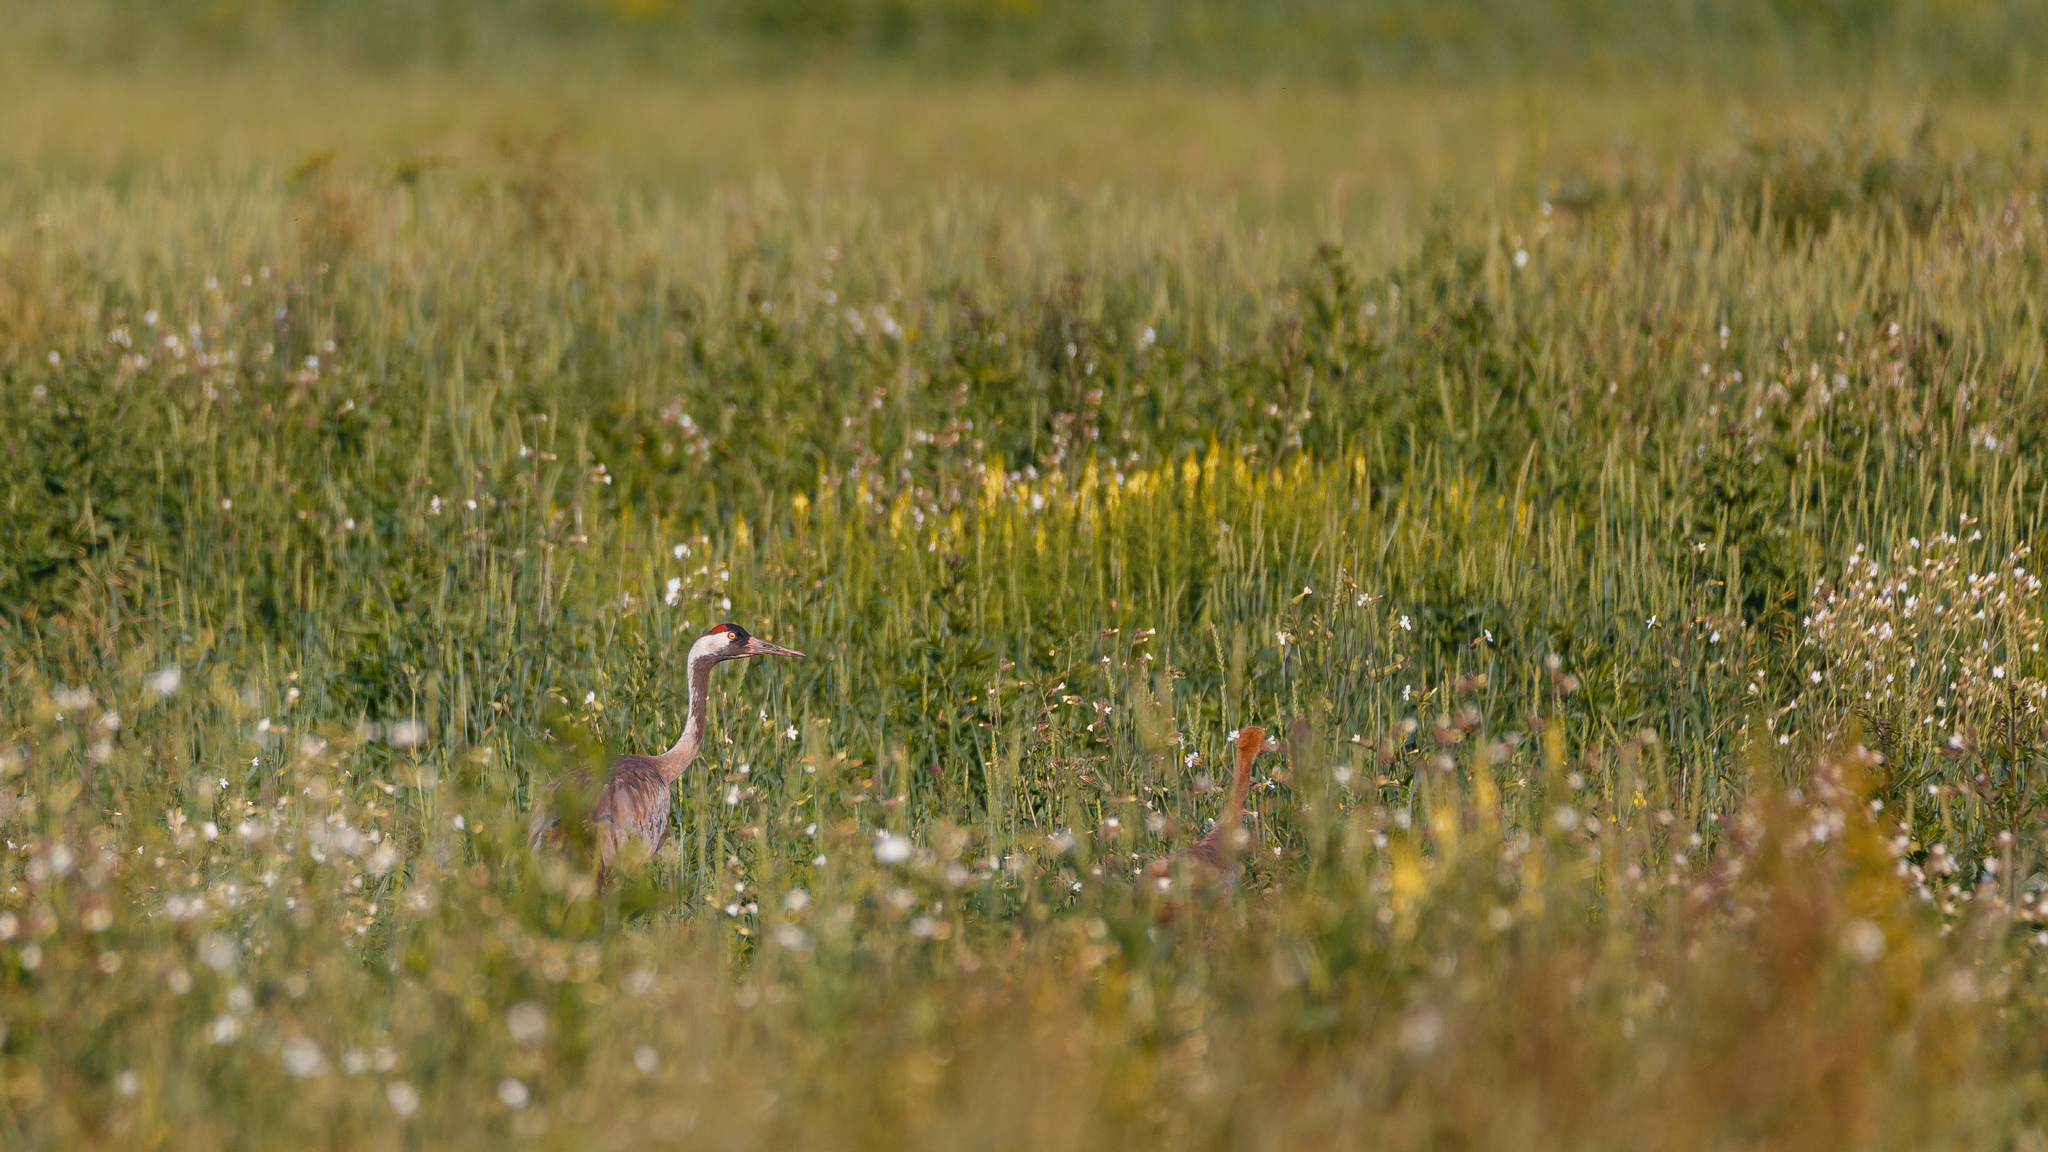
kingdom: Animalia
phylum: Chordata
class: Aves
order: Gruiformes
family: Gruidae
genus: Grus
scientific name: Grus grus
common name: Common crane
